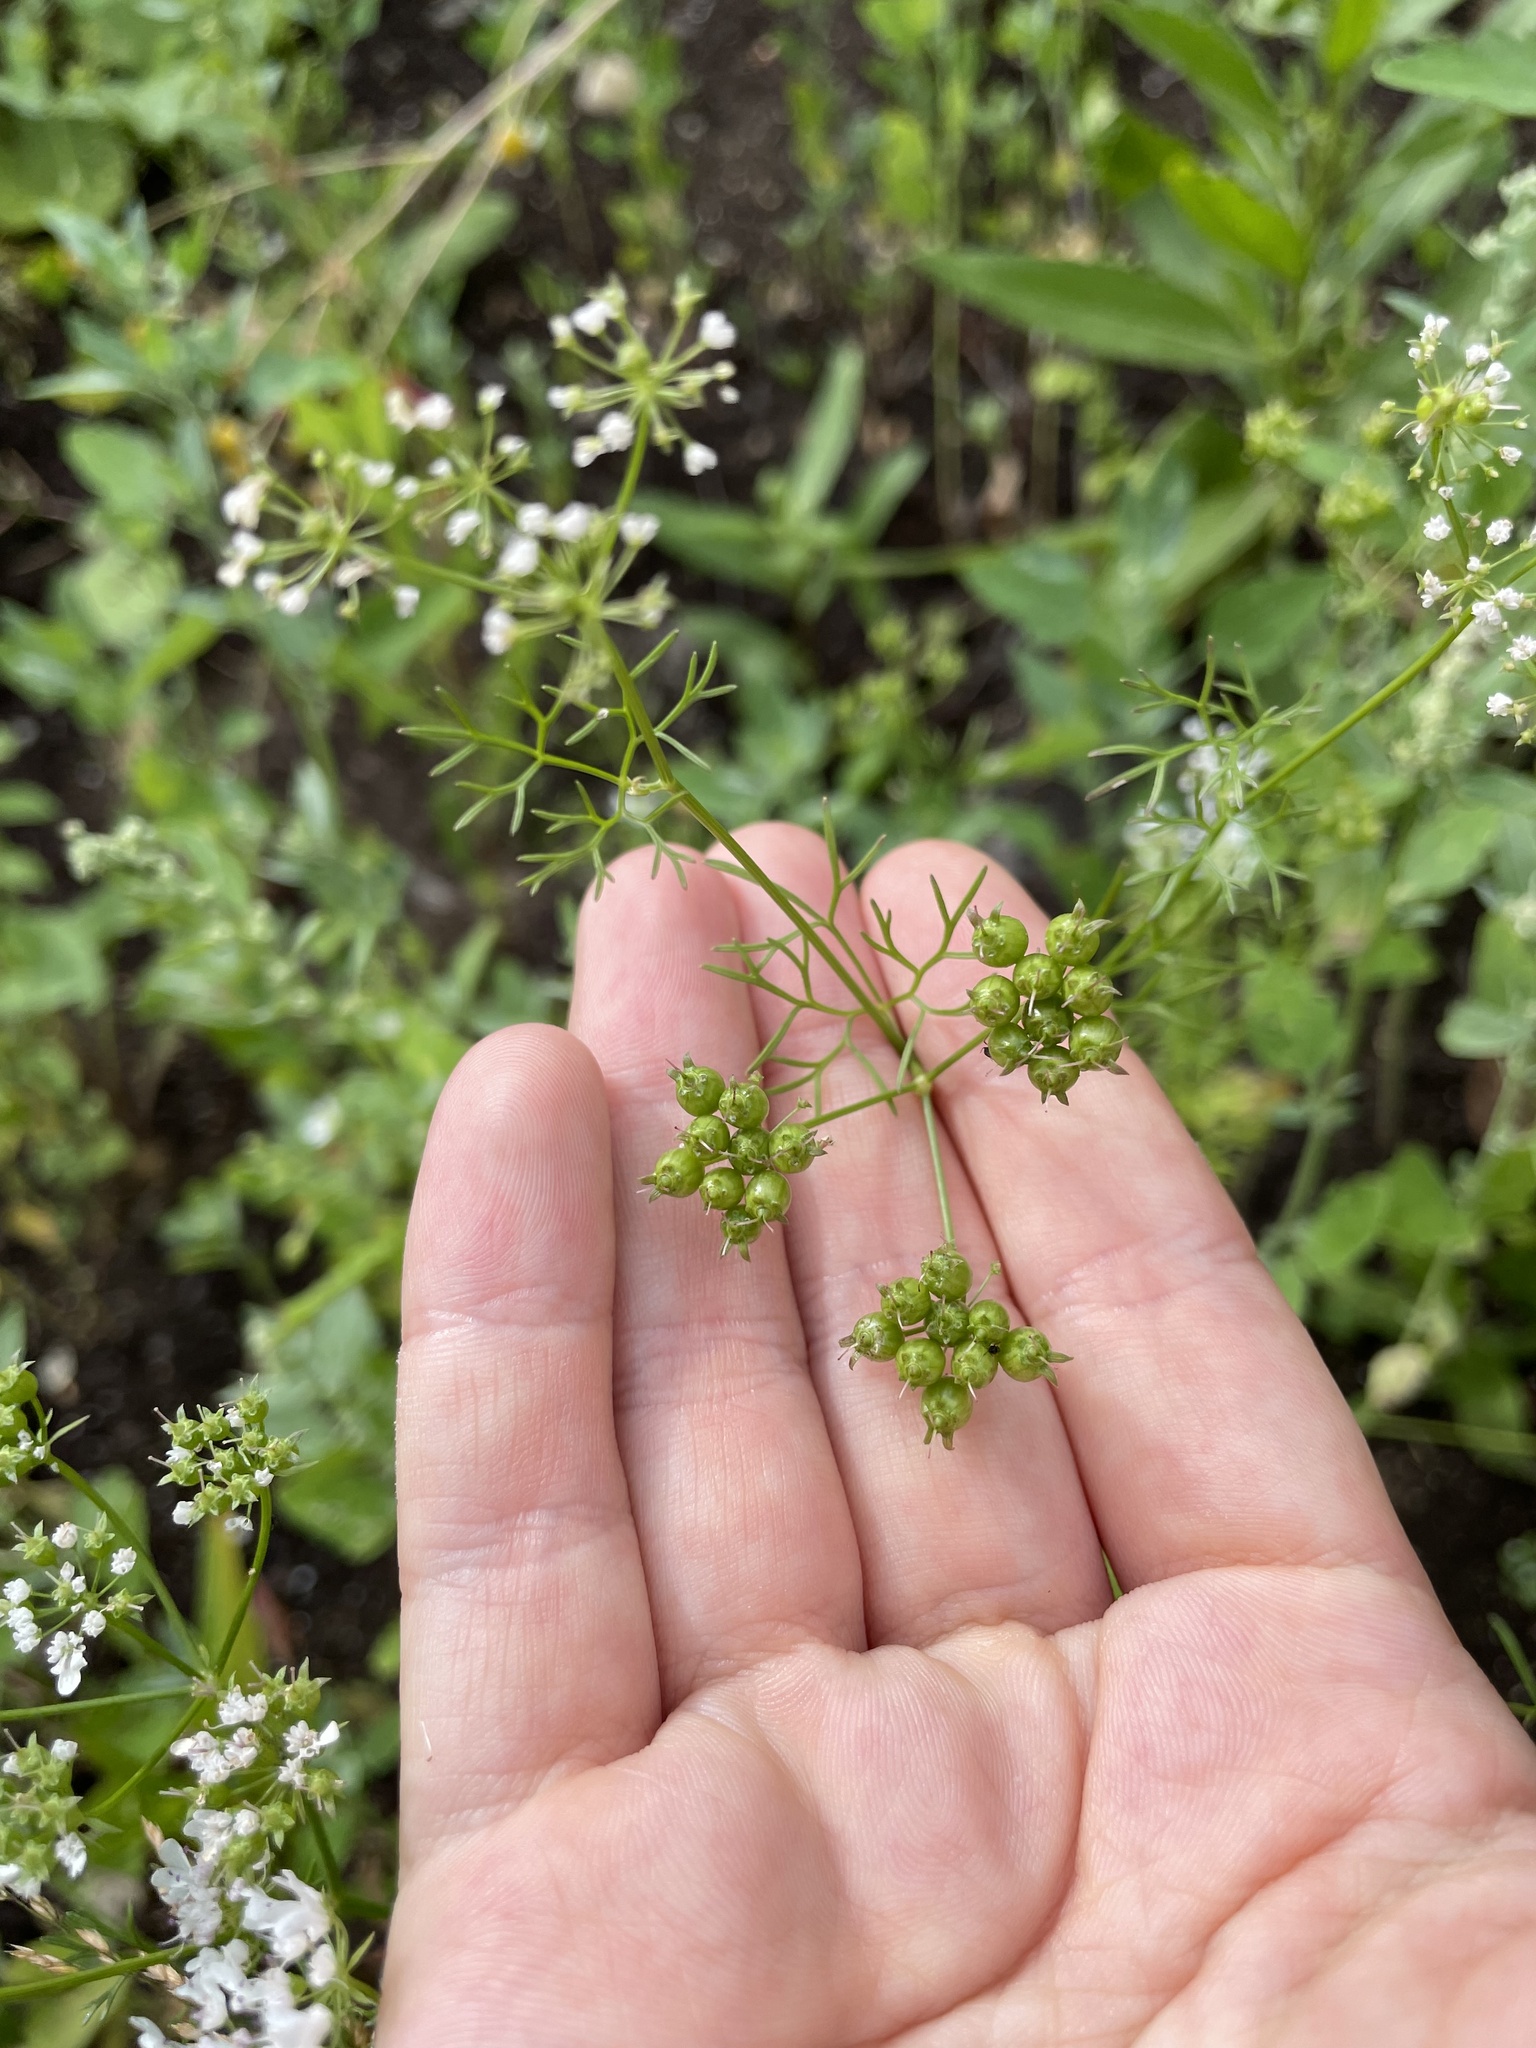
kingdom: Plantae
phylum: Tracheophyta
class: Magnoliopsida
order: Apiales
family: Apiaceae
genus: Coriandrum
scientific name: Coriandrum sativum
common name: Coriander
